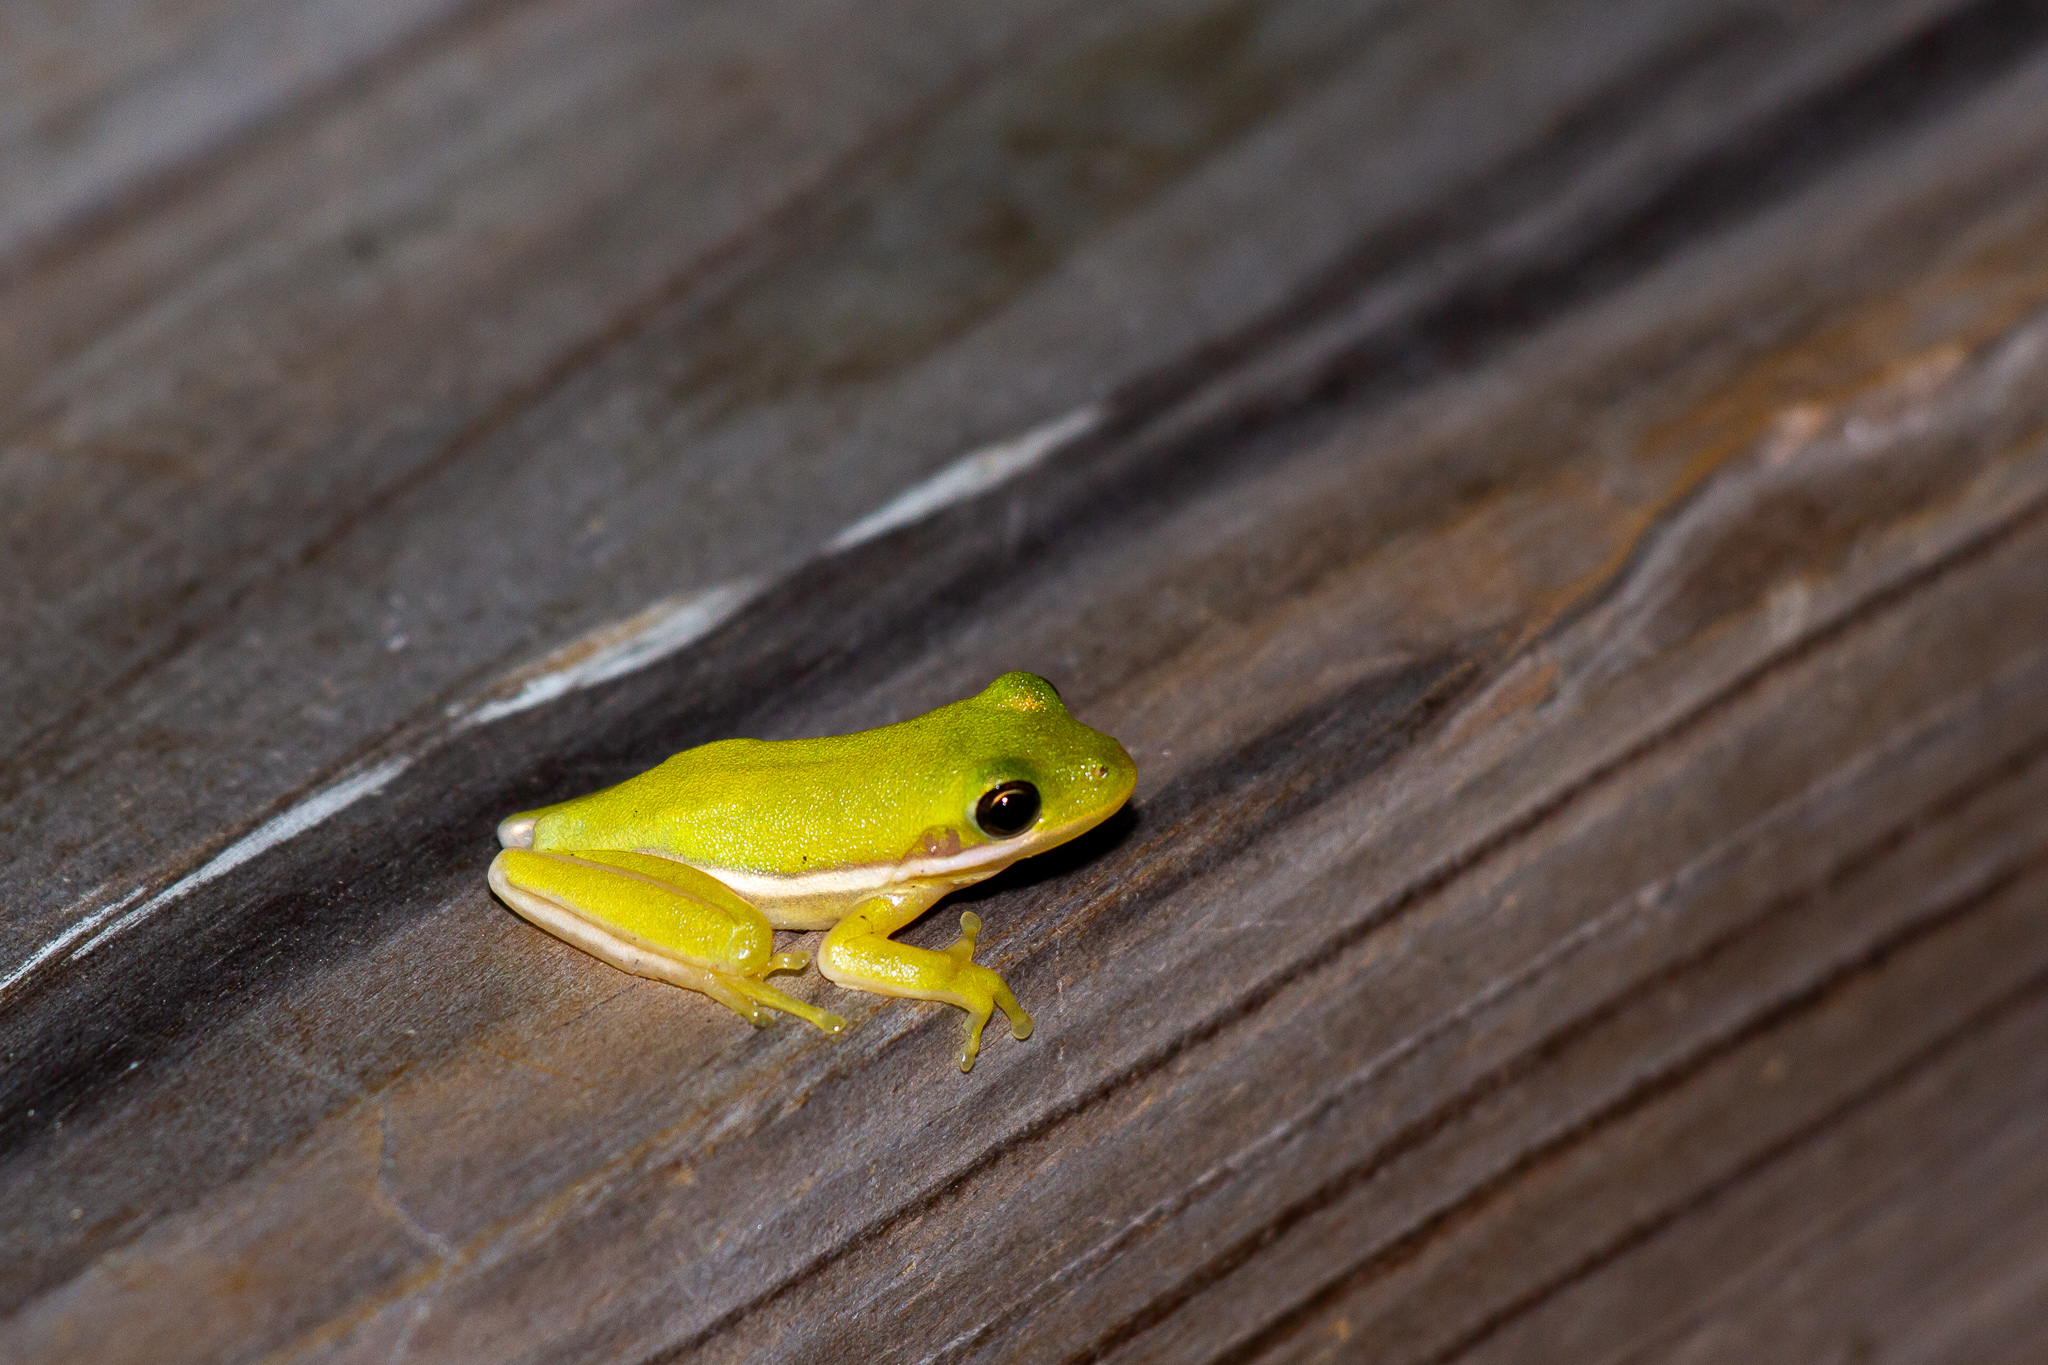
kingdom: Animalia
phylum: Chordata
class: Amphibia
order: Anura
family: Hylidae
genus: Dryophytes
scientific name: Dryophytes cinereus
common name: Green treefrog
